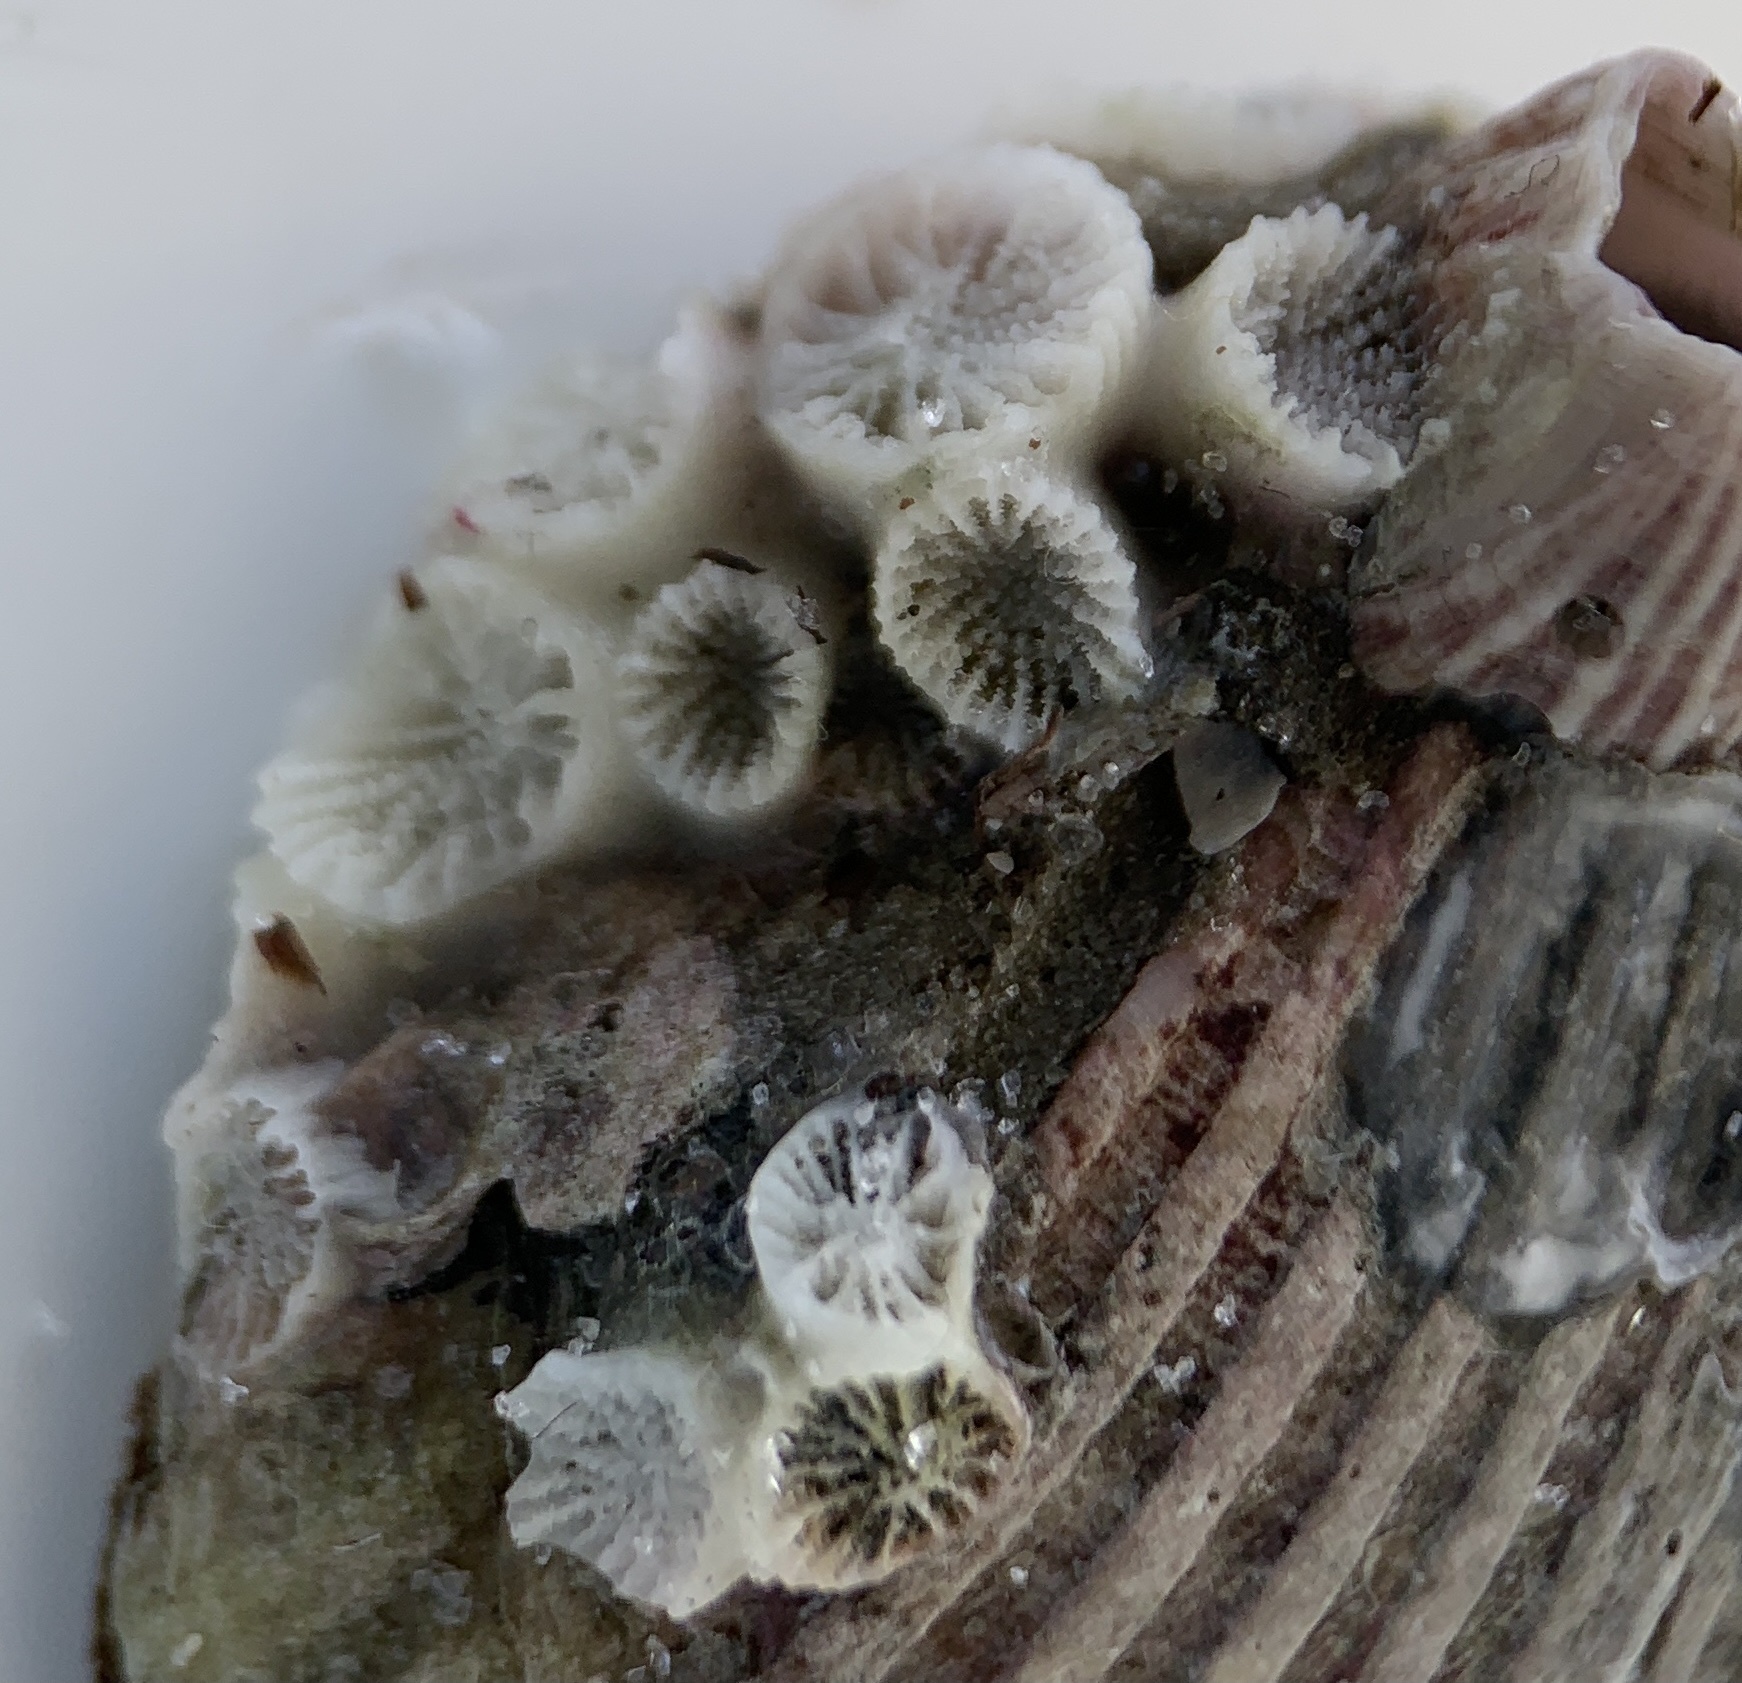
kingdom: Animalia
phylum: Cnidaria
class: Anthozoa
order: Scleractinia
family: Astrangiidae
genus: Astrangia
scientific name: Astrangia poculata
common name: Northern star coral
